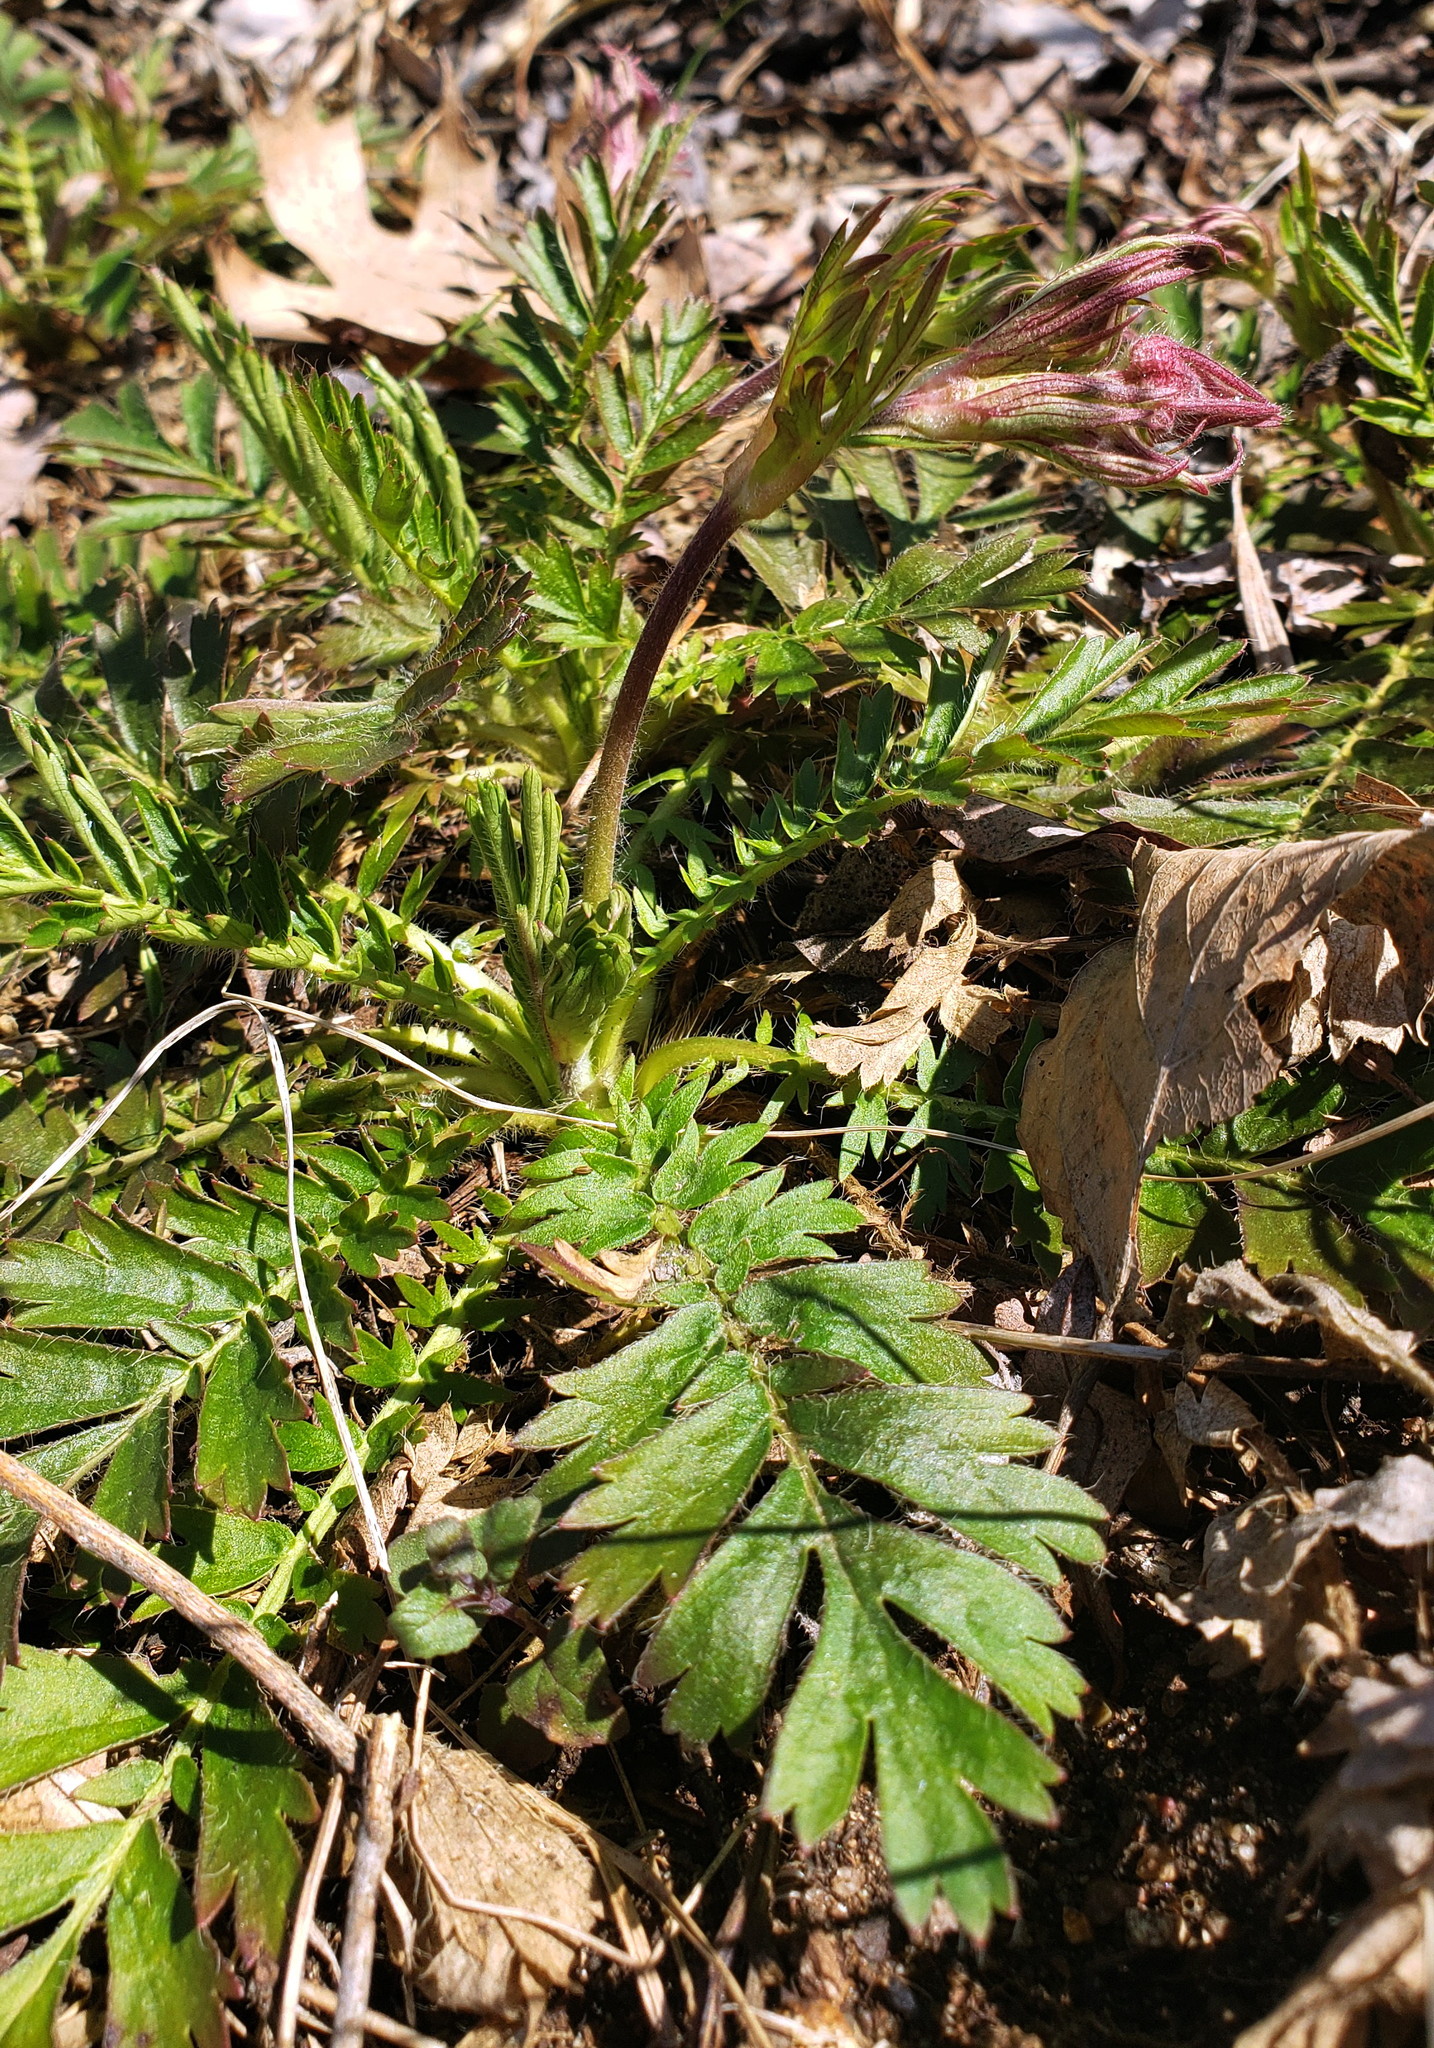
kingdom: Plantae
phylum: Tracheophyta
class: Magnoliopsida
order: Rosales
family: Rosaceae
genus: Geum
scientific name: Geum triflorum
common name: Old man's whiskers
